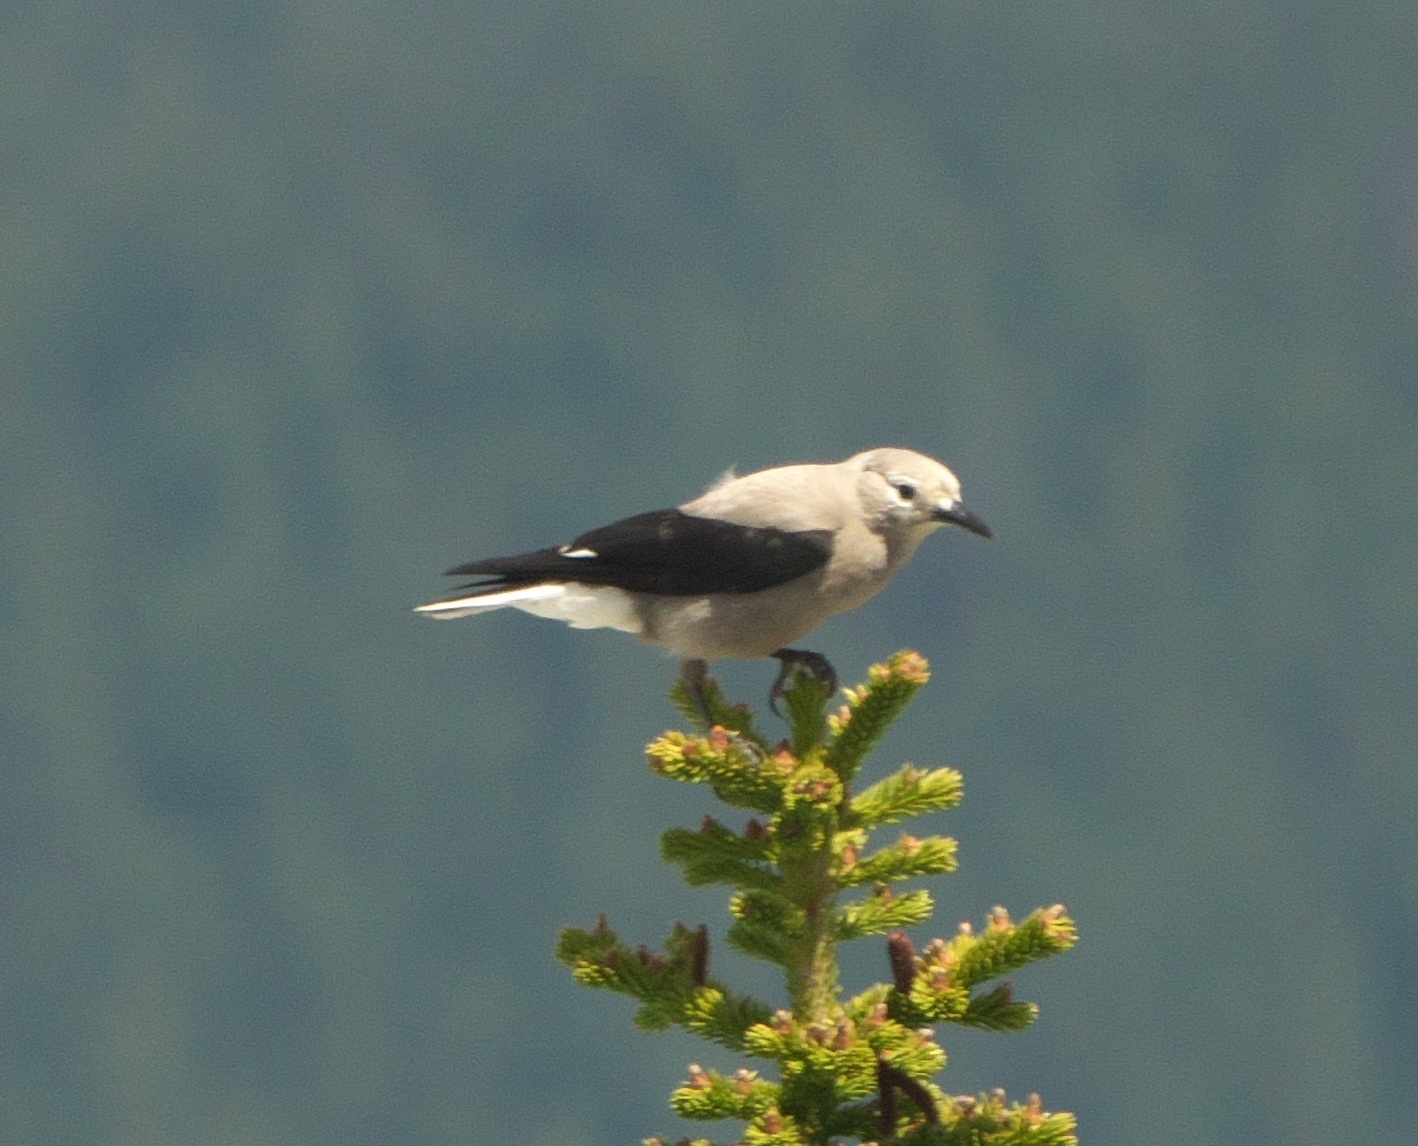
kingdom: Animalia
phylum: Chordata
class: Aves
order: Passeriformes
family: Corvidae
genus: Nucifraga
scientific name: Nucifraga columbiana
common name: Clark's nutcracker
